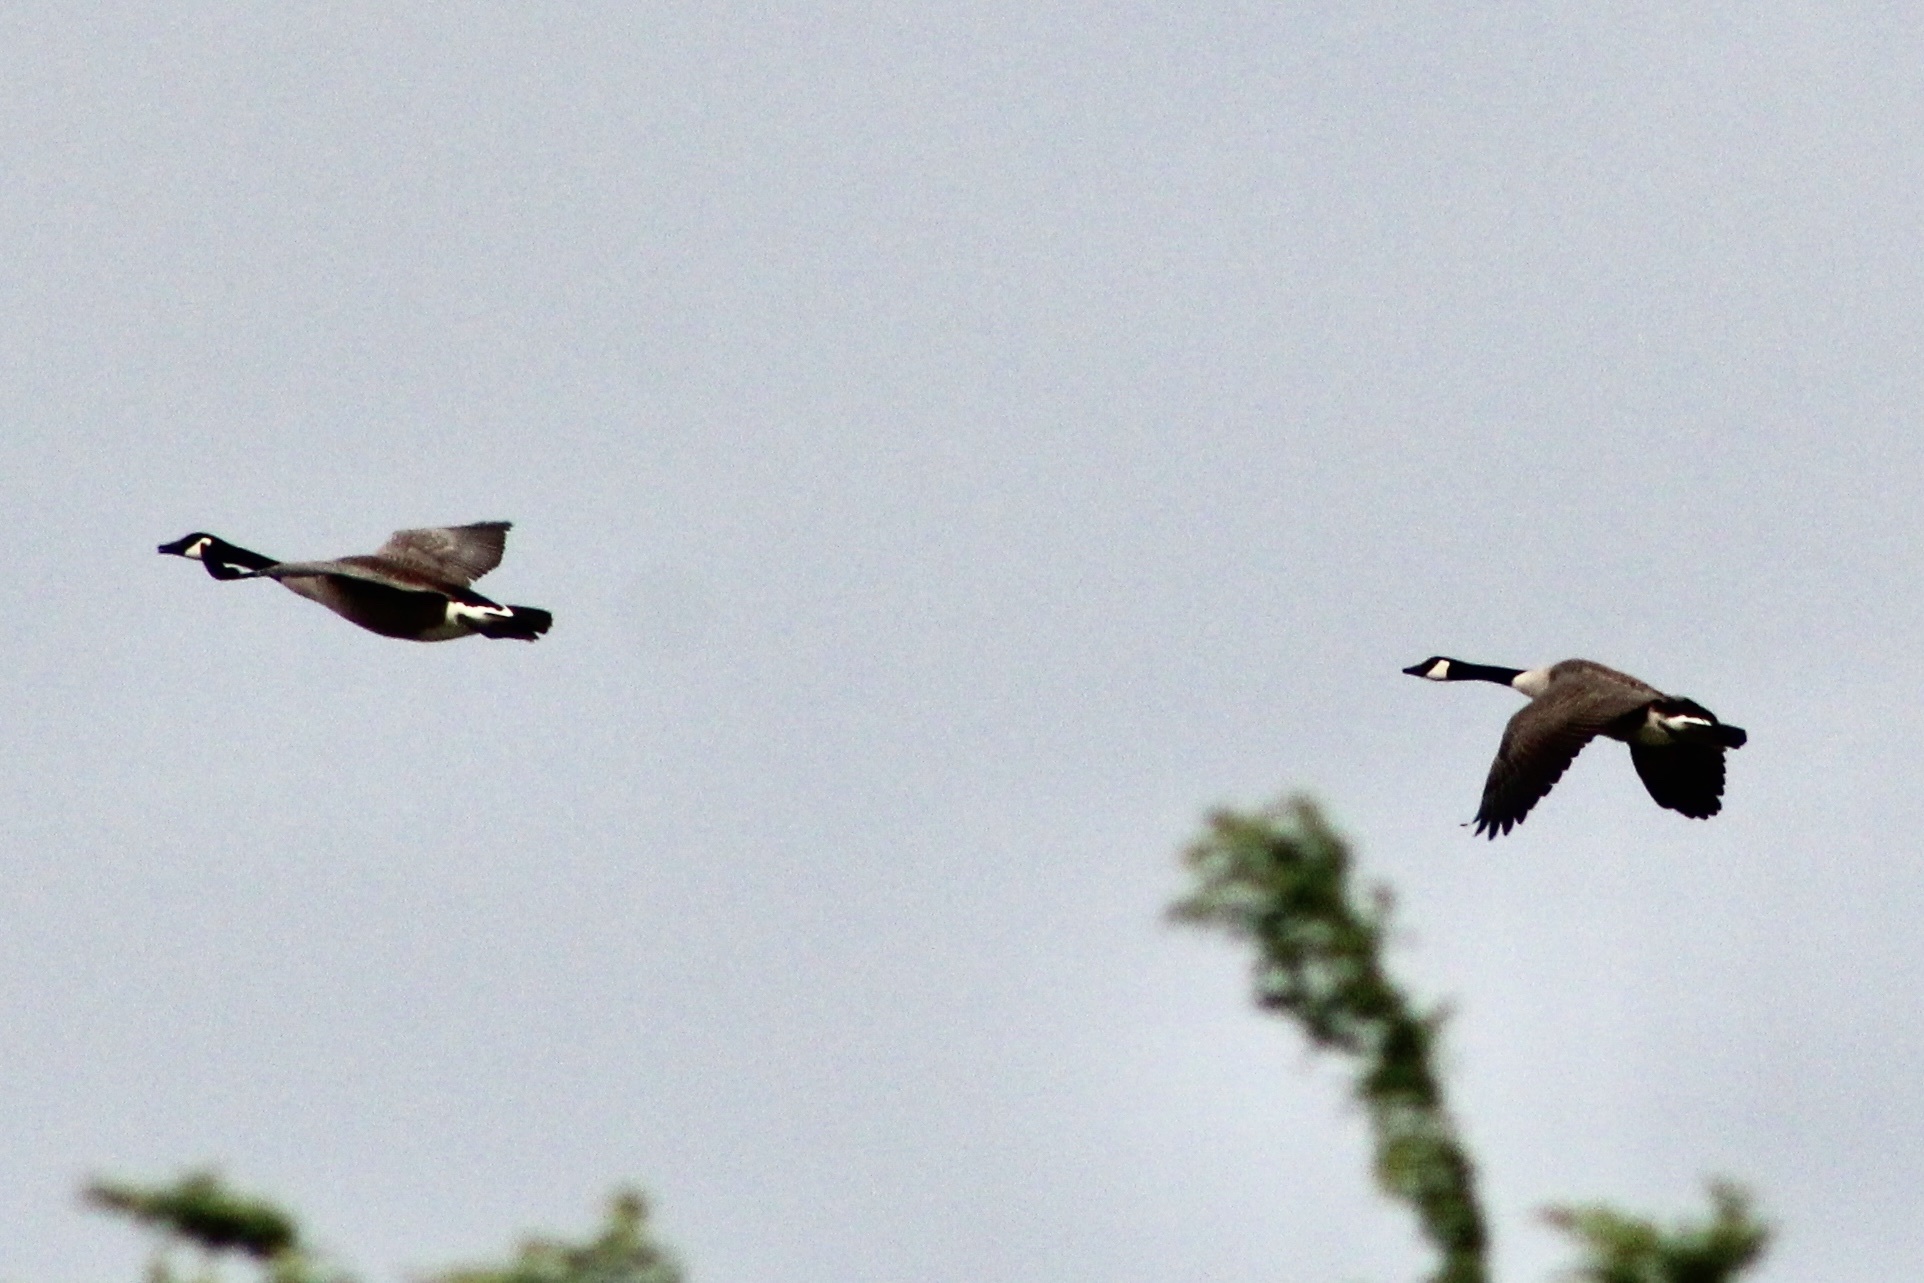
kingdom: Animalia
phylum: Chordata
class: Aves
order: Anseriformes
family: Anatidae
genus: Branta
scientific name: Branta canadensis
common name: Canada goose
